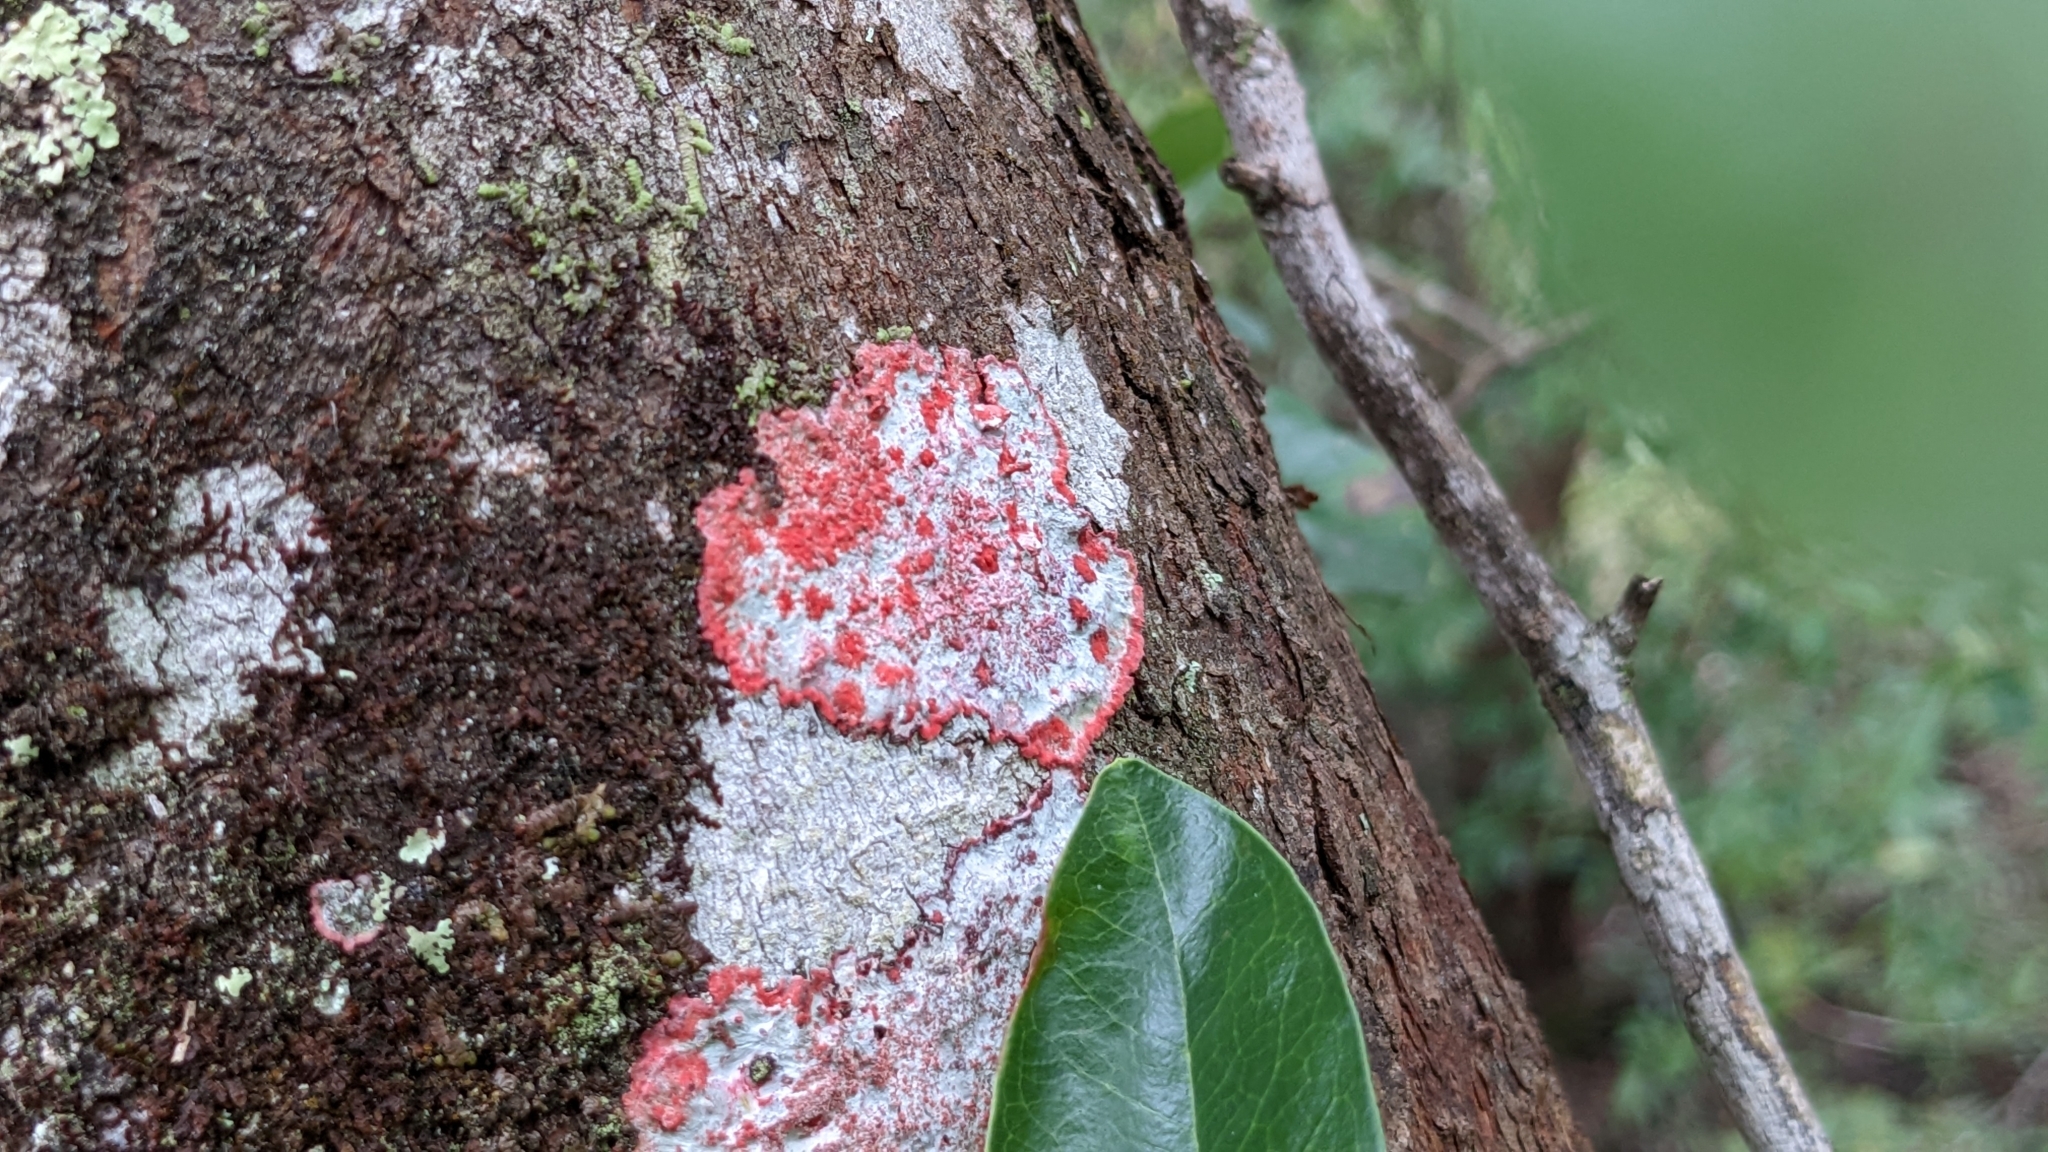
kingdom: Fungi
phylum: Ascomycota
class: Arthoniomycetes
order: Arthoniales
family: Arthoniaceae
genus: Herpothallon
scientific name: Herpothallon rubrocinctum
